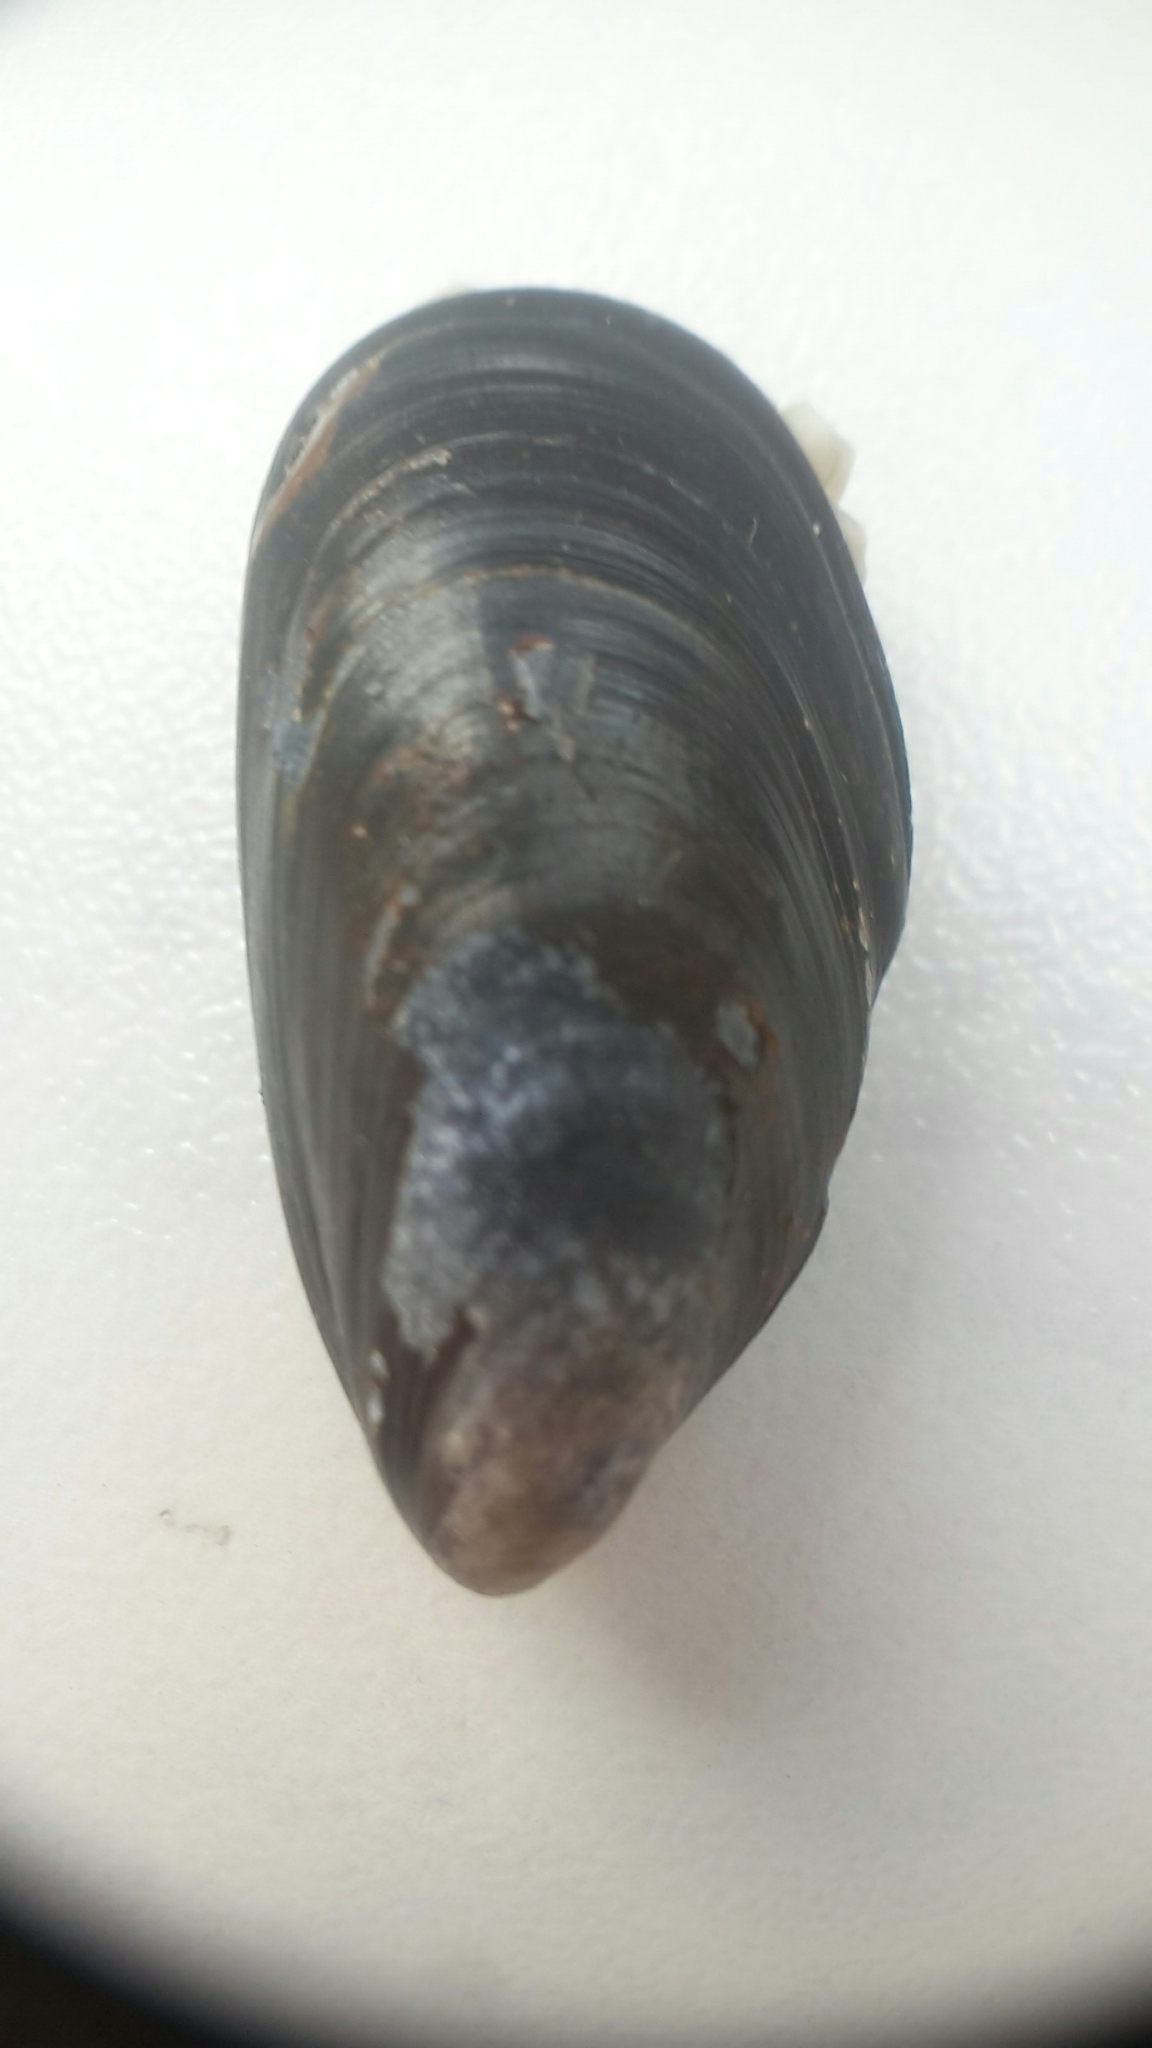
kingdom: Animalia
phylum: Mollusca
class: Bivalvia
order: Mytilida
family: Mytilidae
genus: Mytilus
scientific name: Mytilus edulis
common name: Blue mussel
